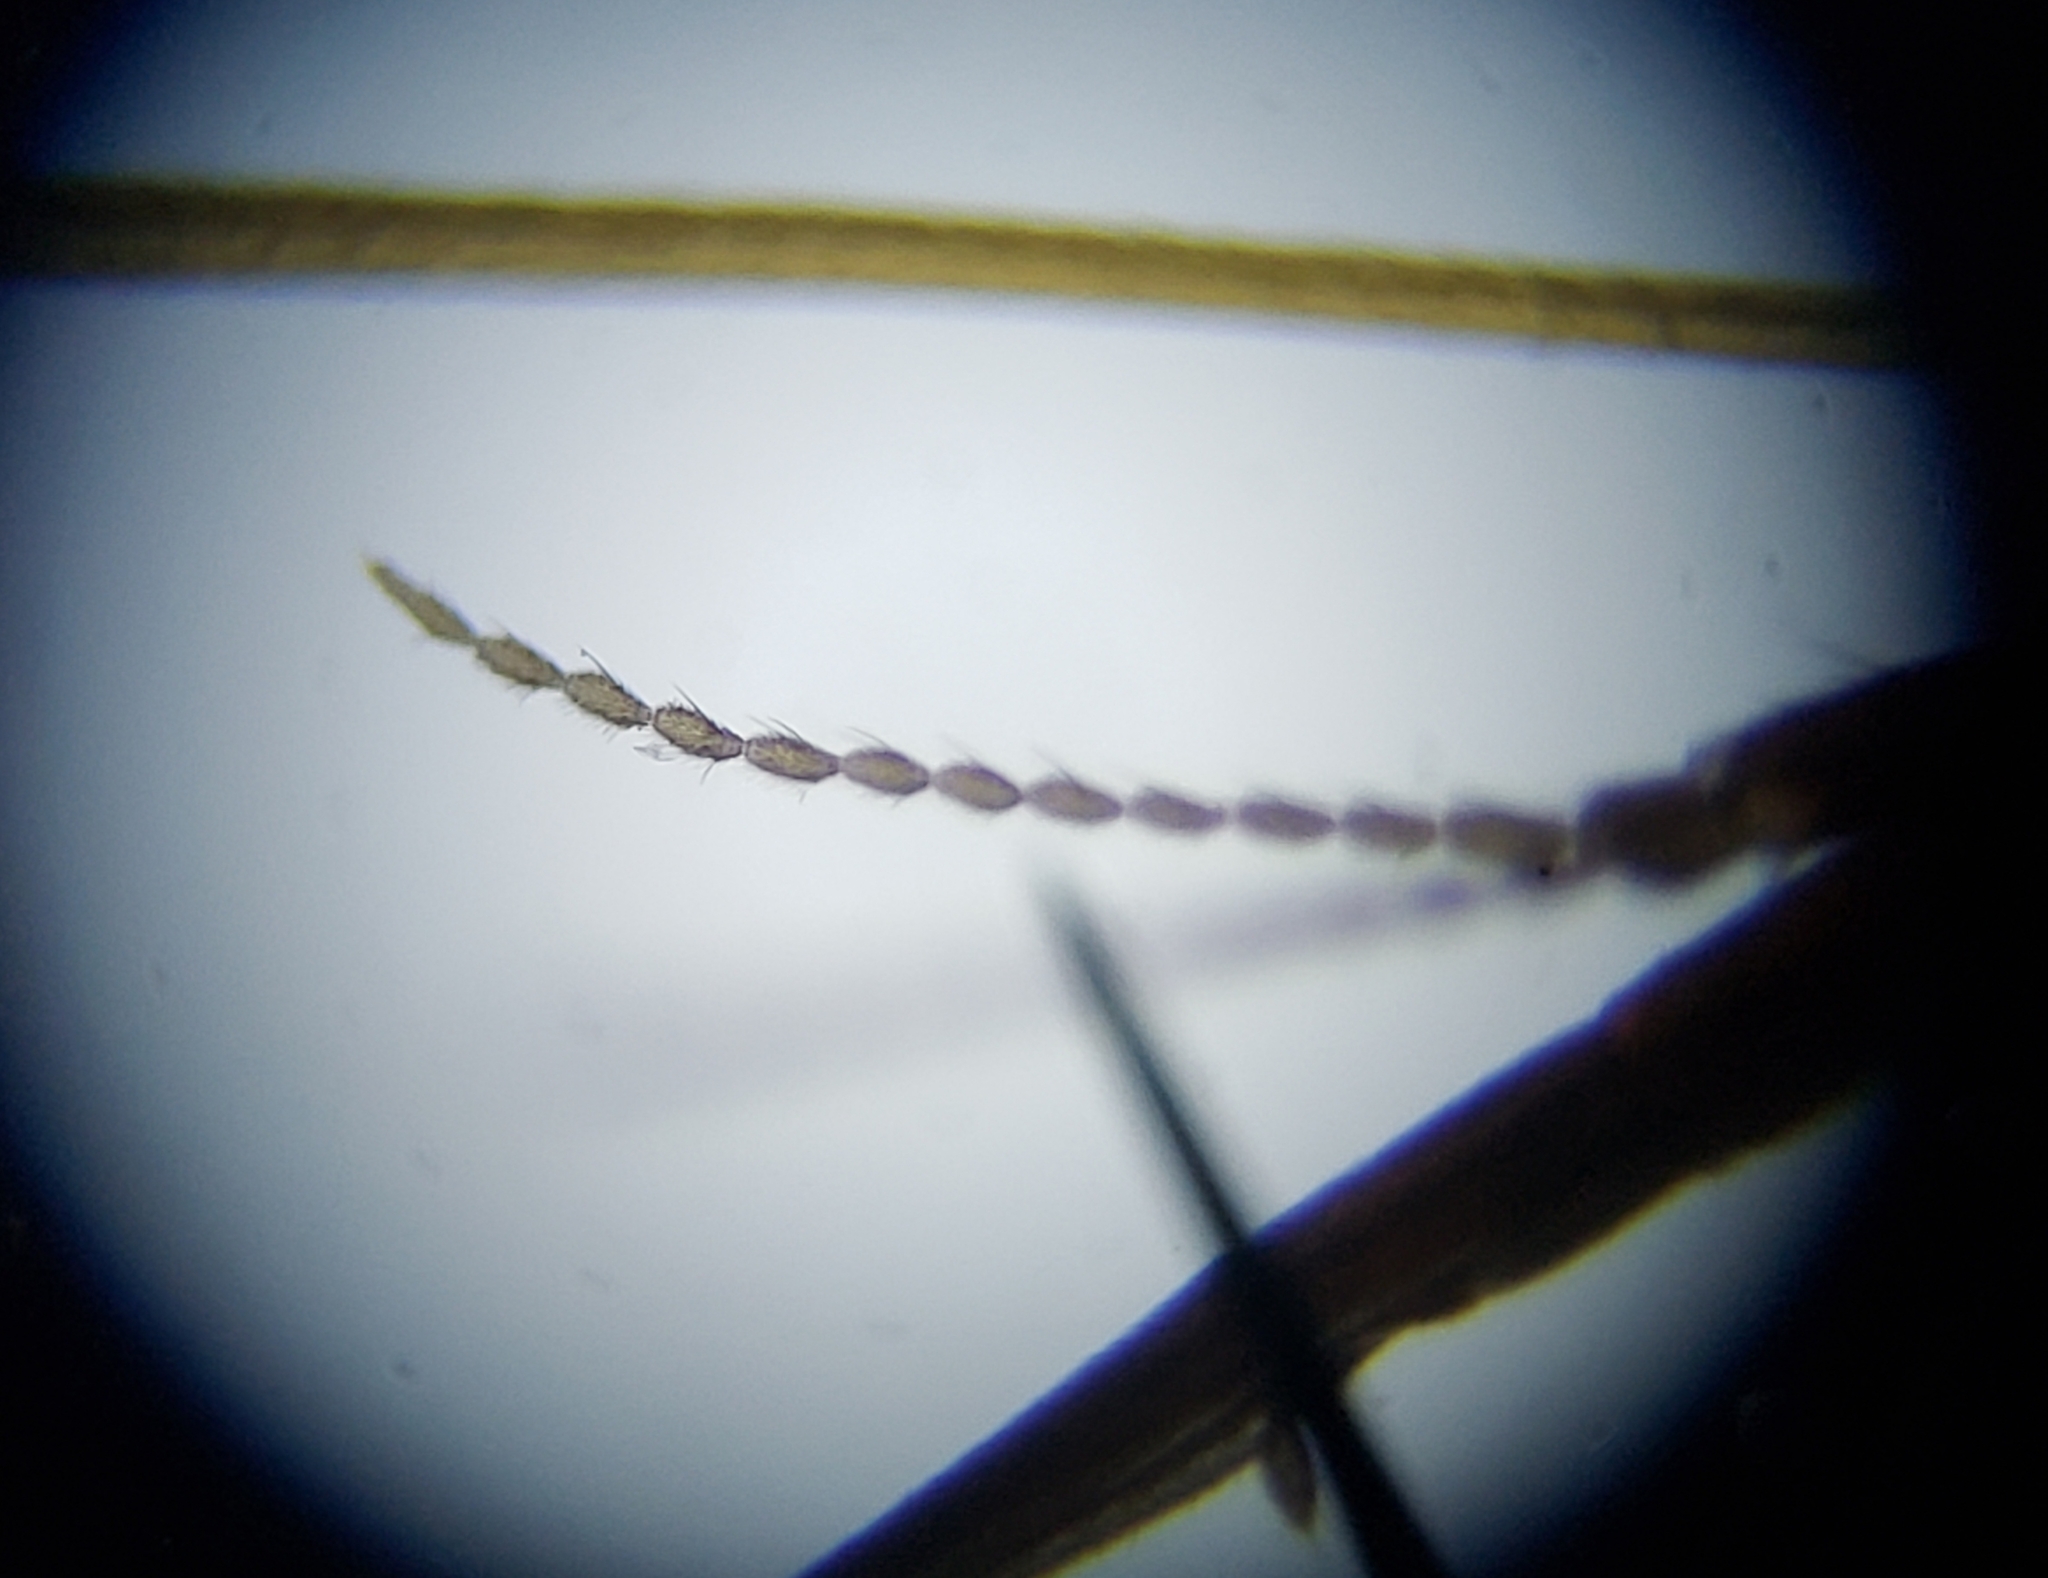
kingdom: Animalia
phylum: Arthropoda
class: Insecta
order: Diptera
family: Limoniidae
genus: Geranomyia
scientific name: Geranomyia rostrata
